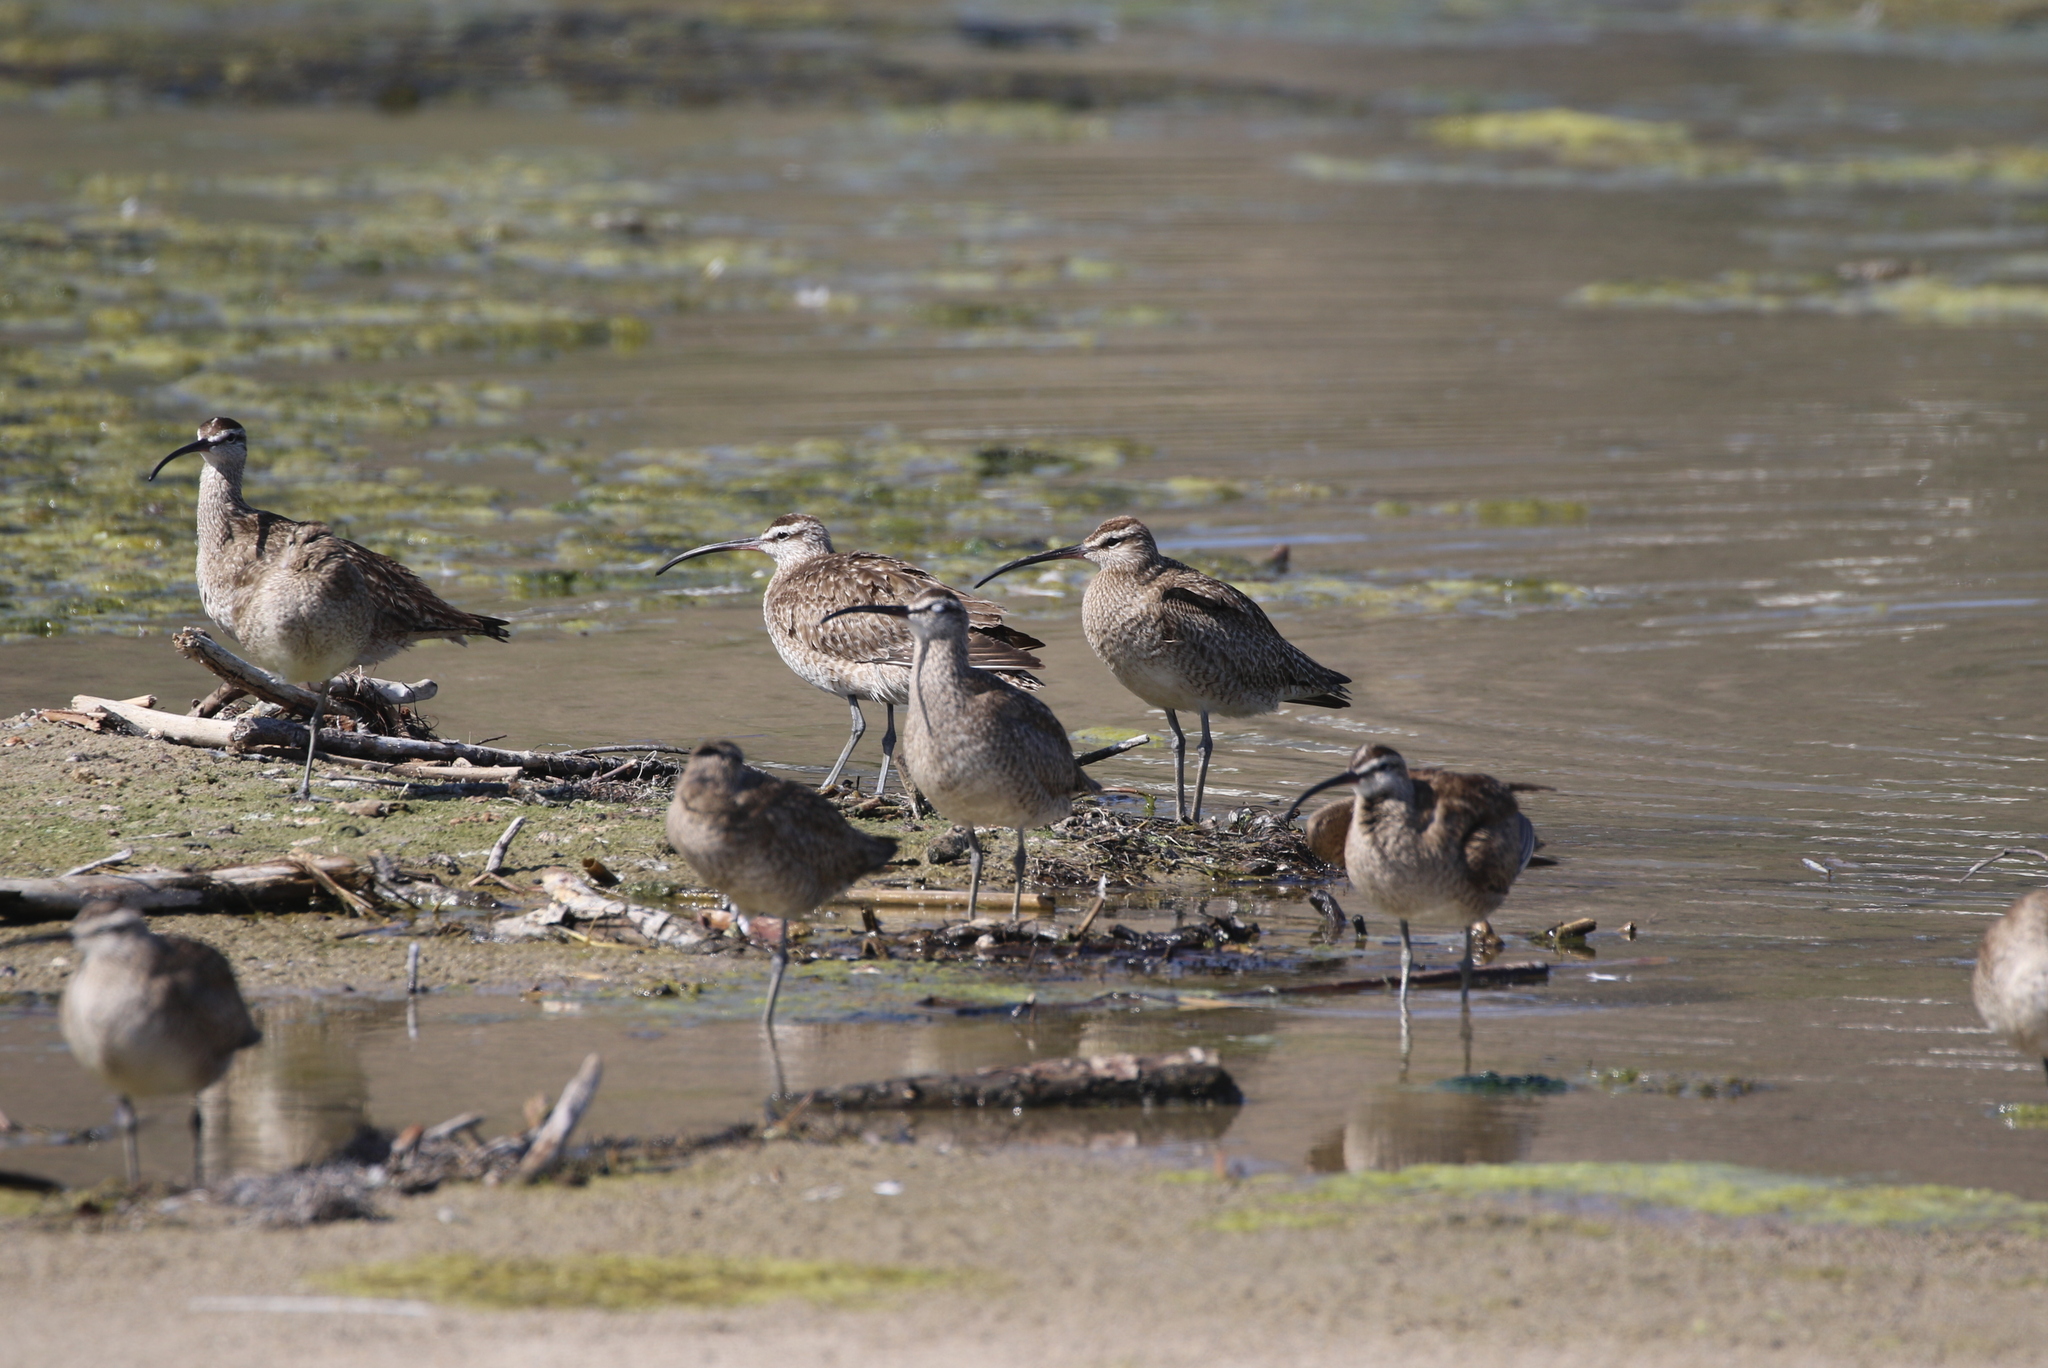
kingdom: Animalia
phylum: Chordata
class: Aves
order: Charadriiformes
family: Scolopacidae
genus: Numenius
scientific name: Numenius phaeopus
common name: Whimbrel
